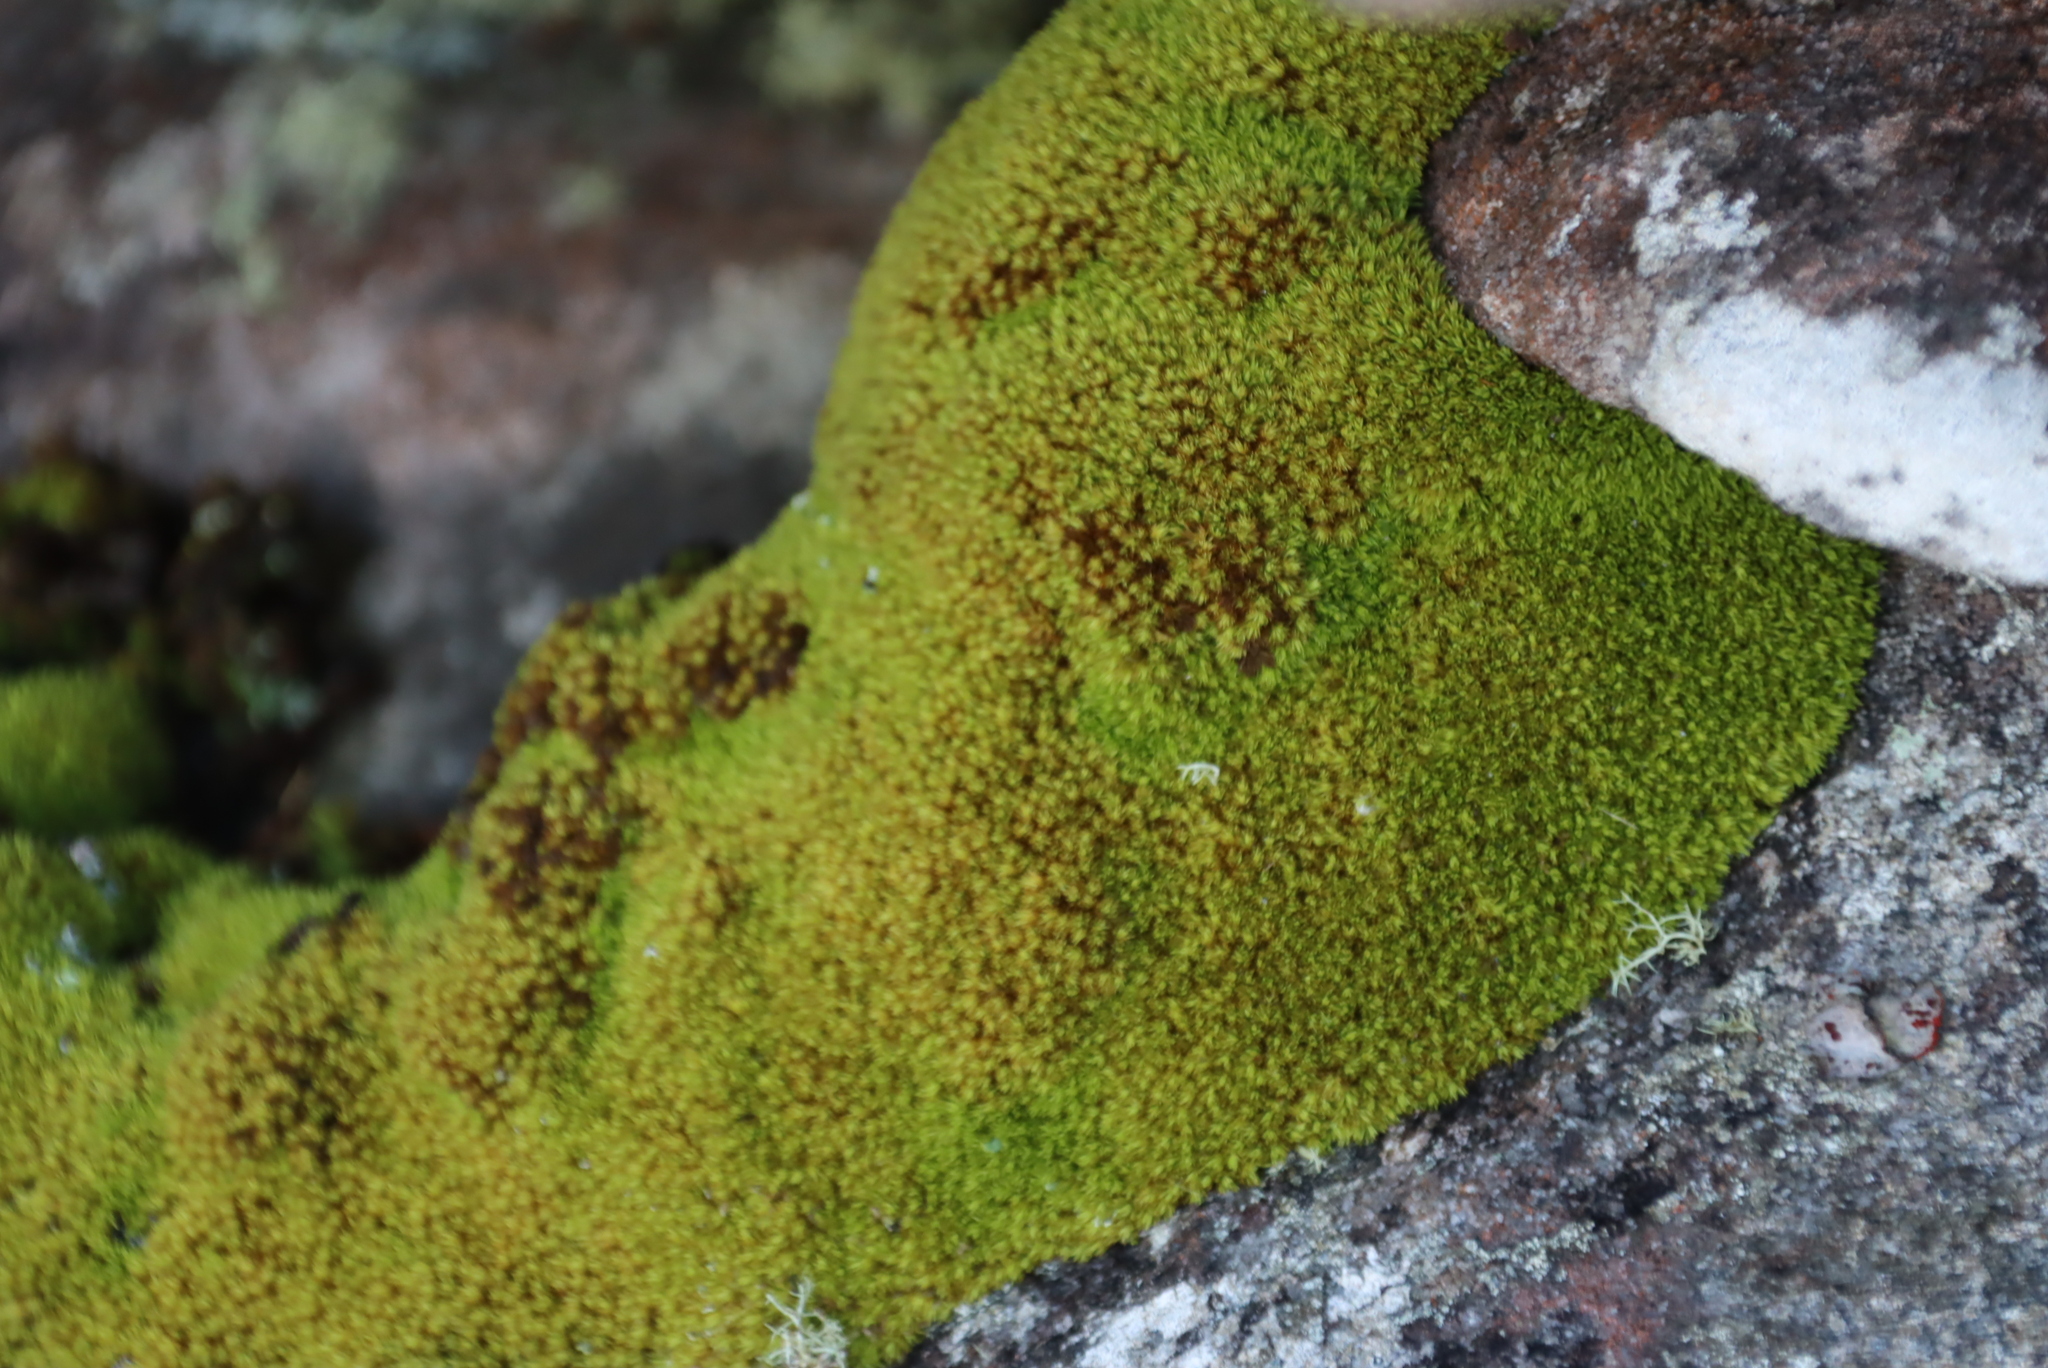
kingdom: Plantae
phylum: Bryophyta
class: Bryopsida
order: Dicranales
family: Hypodontiaceae
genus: Hypodontium
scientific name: Hypodontium pomiforme
